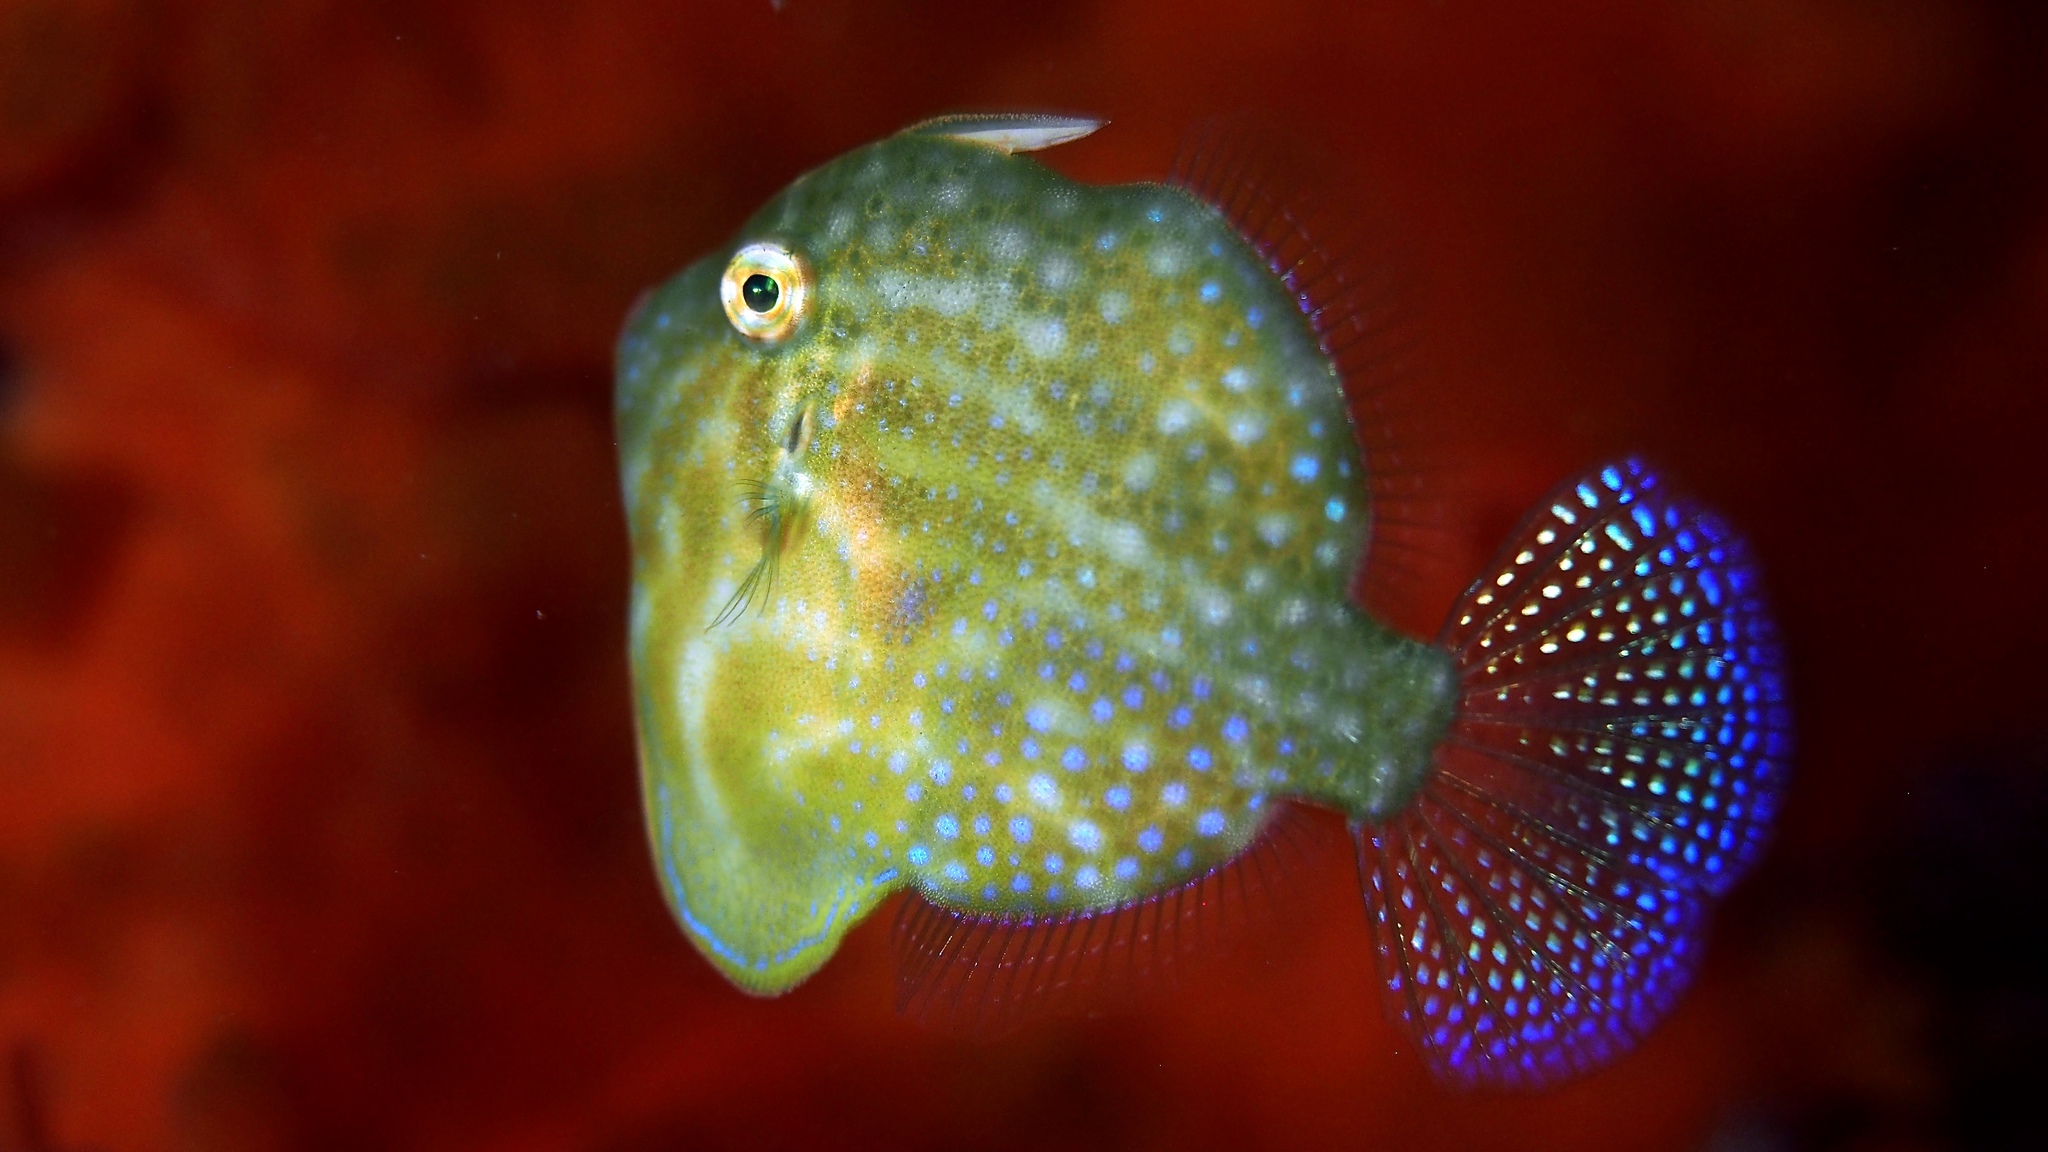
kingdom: Animalia
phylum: Chordata
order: Tetraodontiformes
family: Monacanthidae
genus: Brachaluteres
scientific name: Brachaluteres jacksonianus
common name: Pigmy leatherjacket
